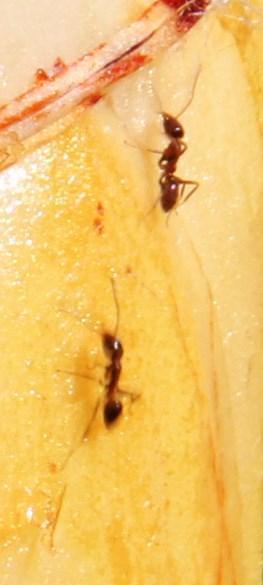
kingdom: Animalia
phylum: Arthropoda
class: Insecta
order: Hymenoptera
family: Formicidae
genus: Linepithema
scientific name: Linepithema humile
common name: Argentine ant
